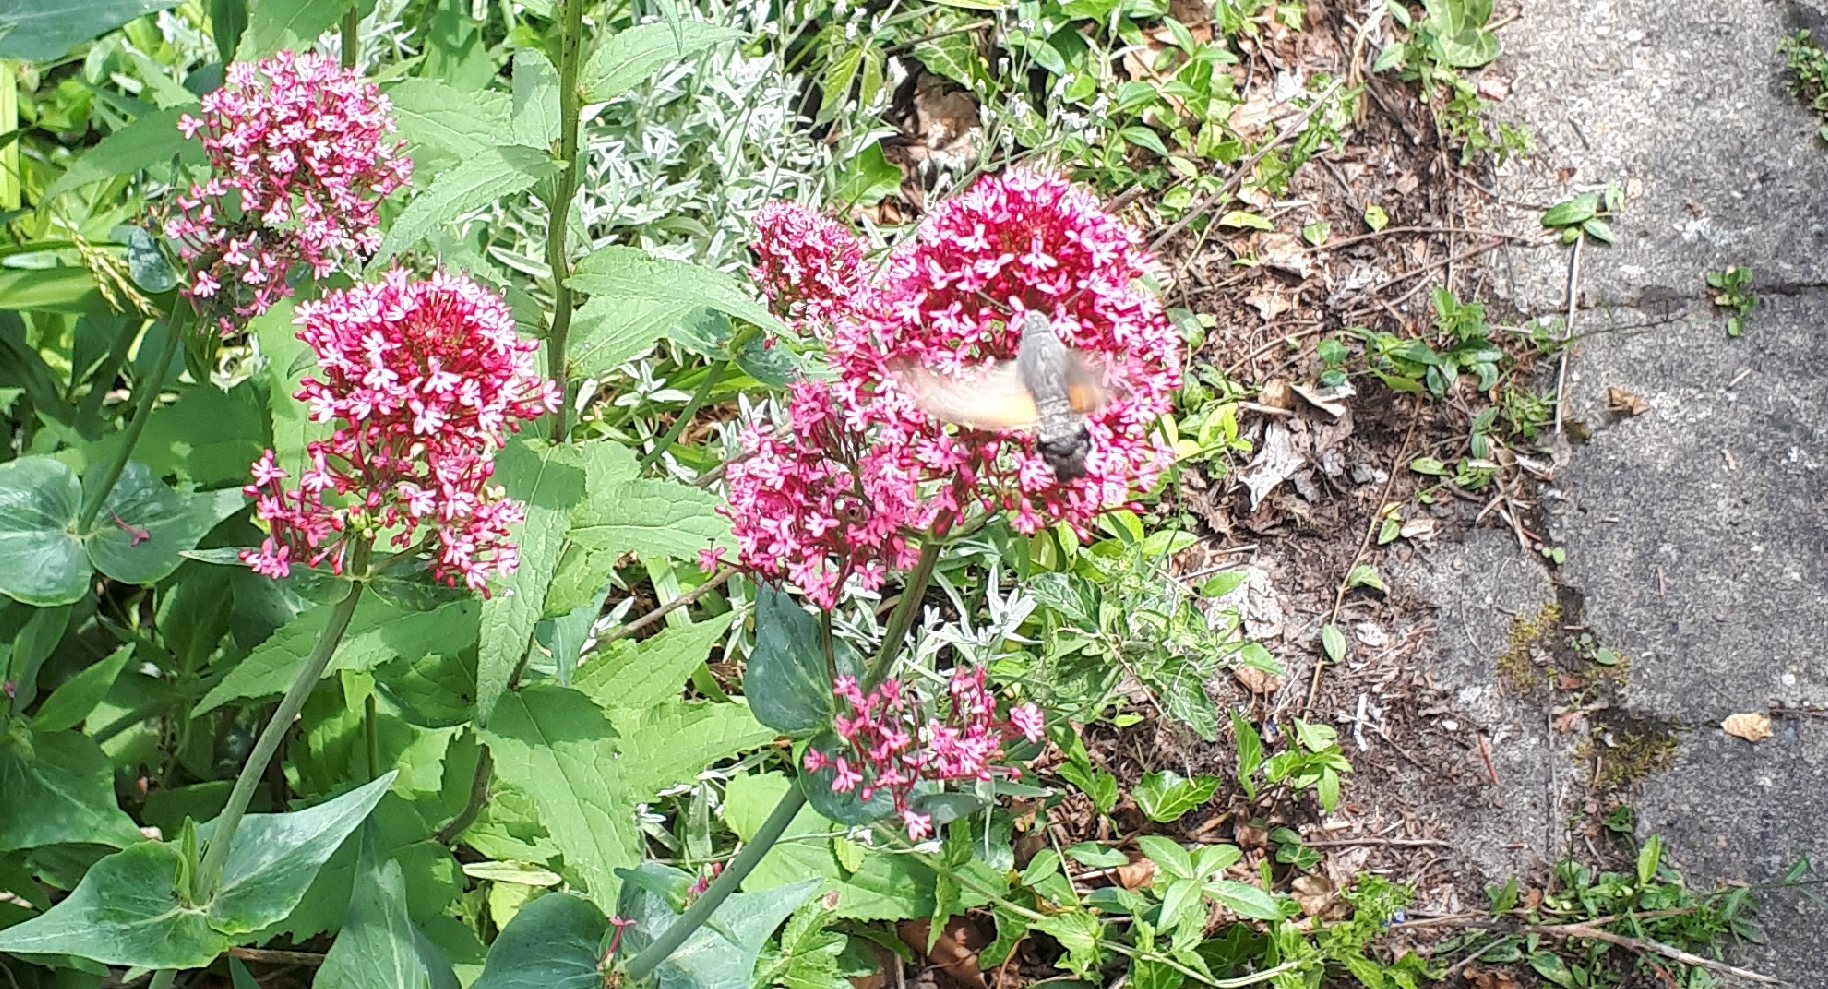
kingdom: Animalia
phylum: Arthropoda
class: Insecta
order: Lepidoptera
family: Sphingidae
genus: Macroglossum
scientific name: Macroglossum stellatarum
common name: Humming-bird hawk-moth
